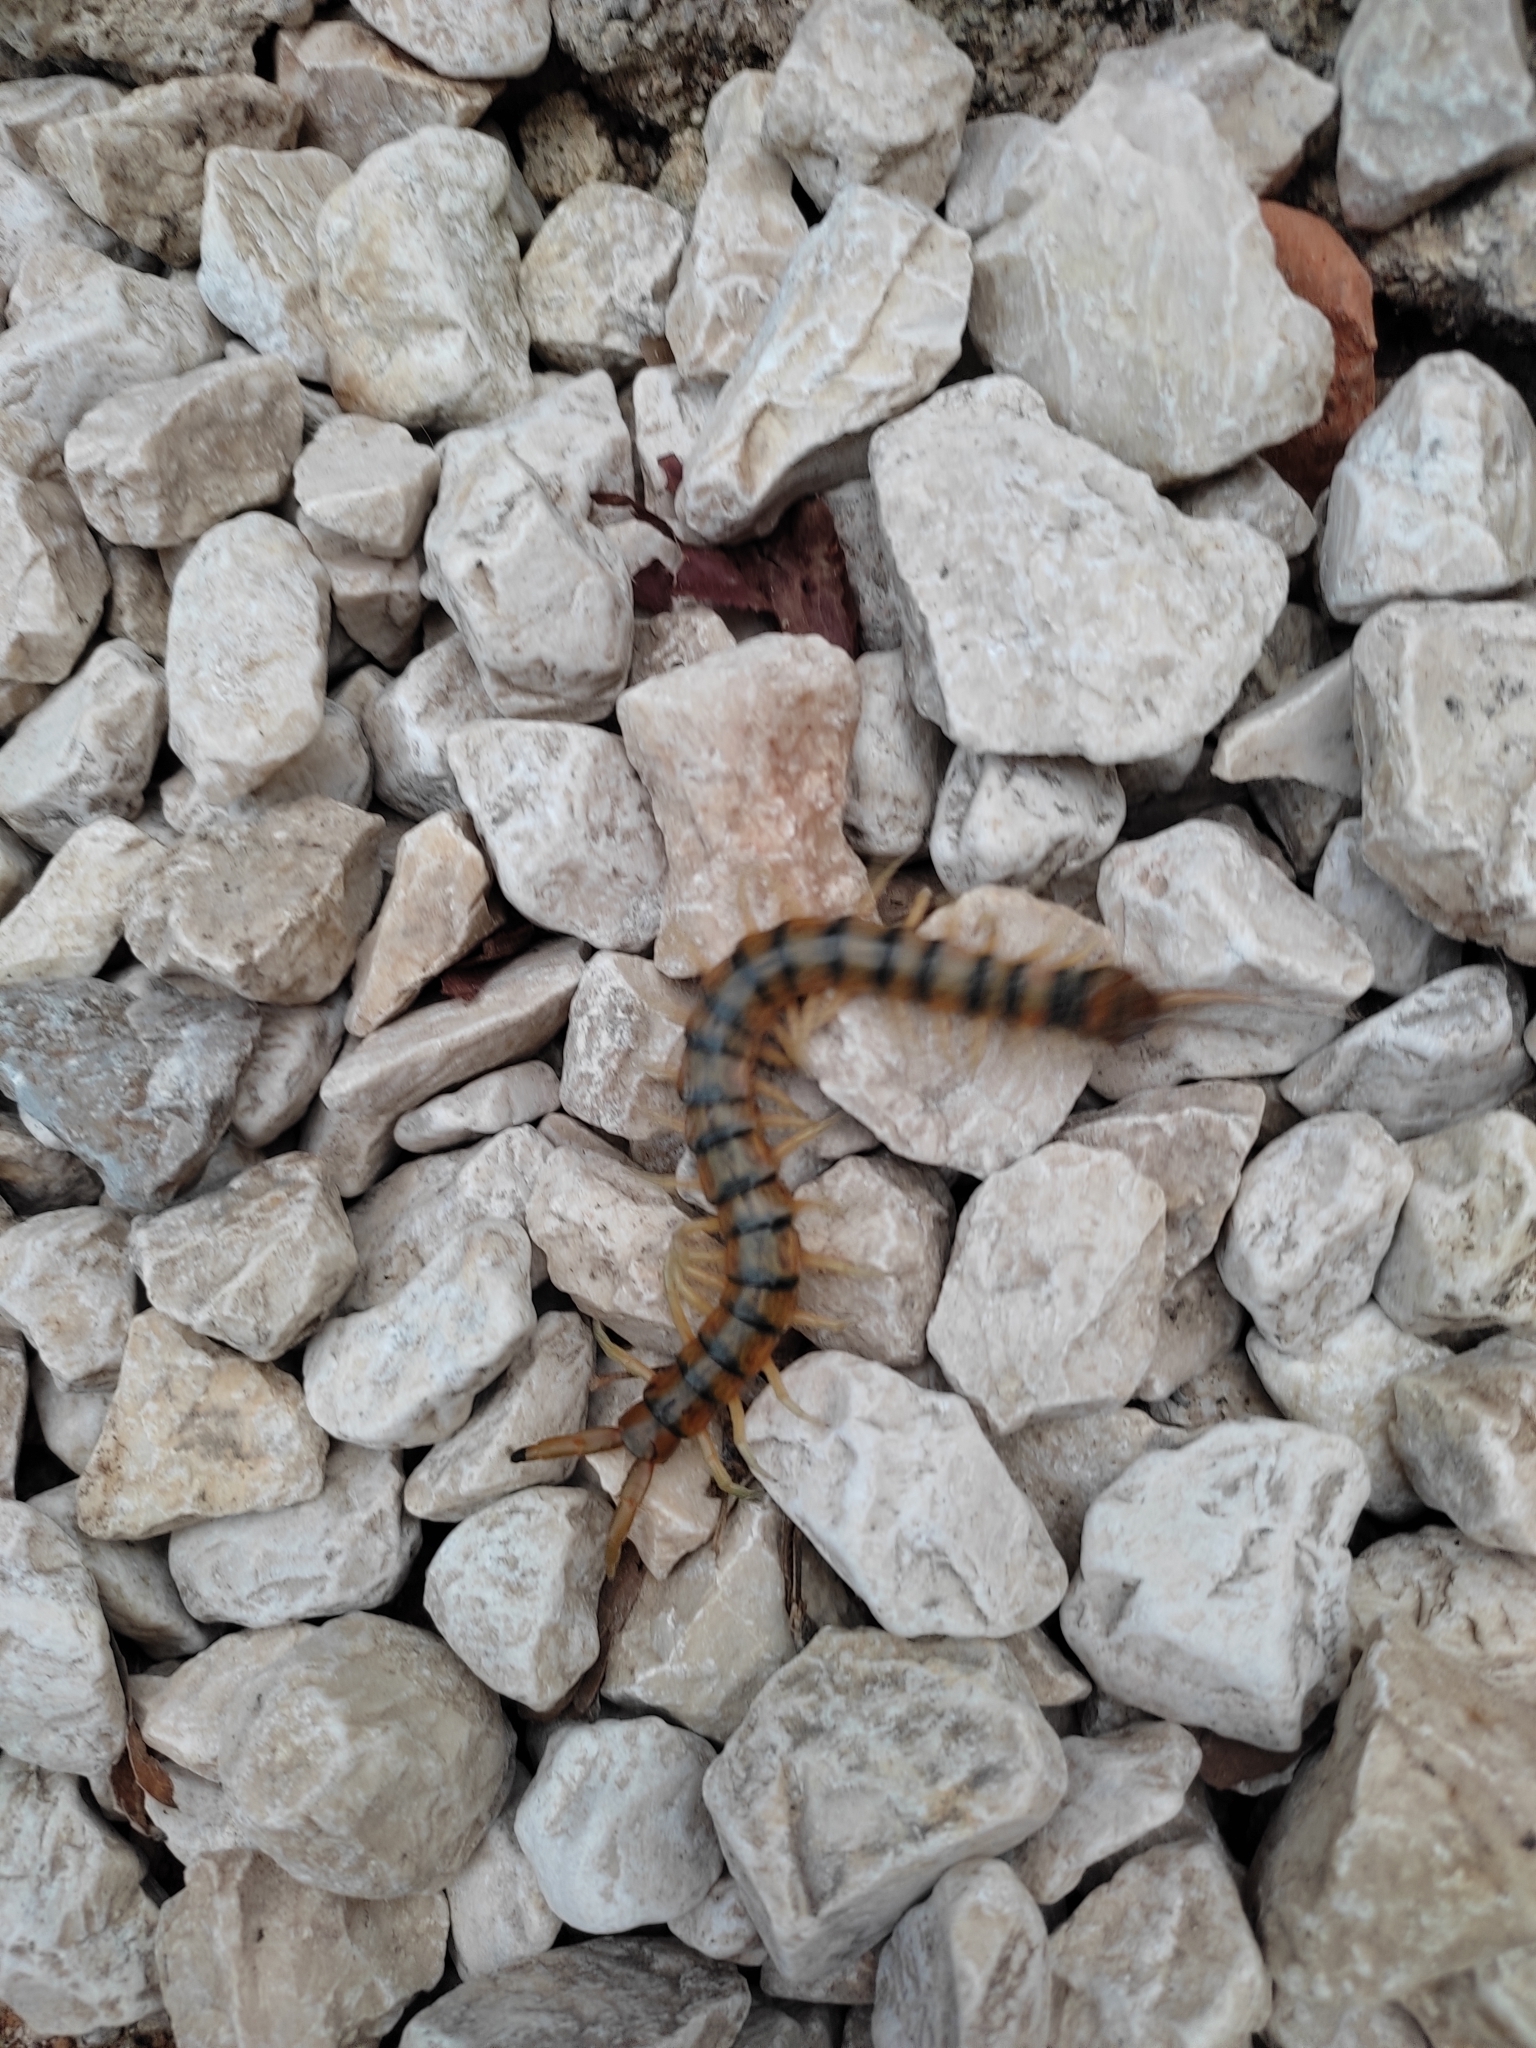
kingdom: Animalia
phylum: Arthropoda
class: Chilopoda
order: Scolopendromorpha
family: Scolopendridae
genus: Scolopendra
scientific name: Scolopendra cingulata
